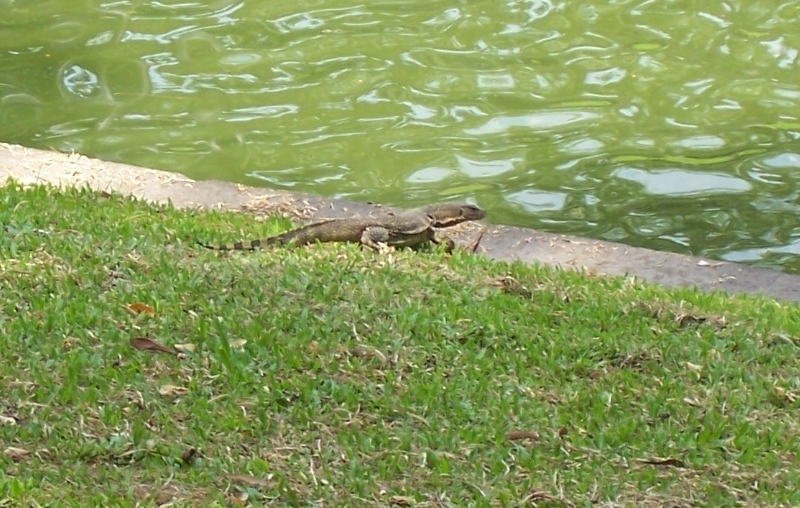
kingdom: Animalia
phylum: Chordata
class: Squamata
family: Varanidae
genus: Varanus
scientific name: Varanus salvator
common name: Common water monitor
